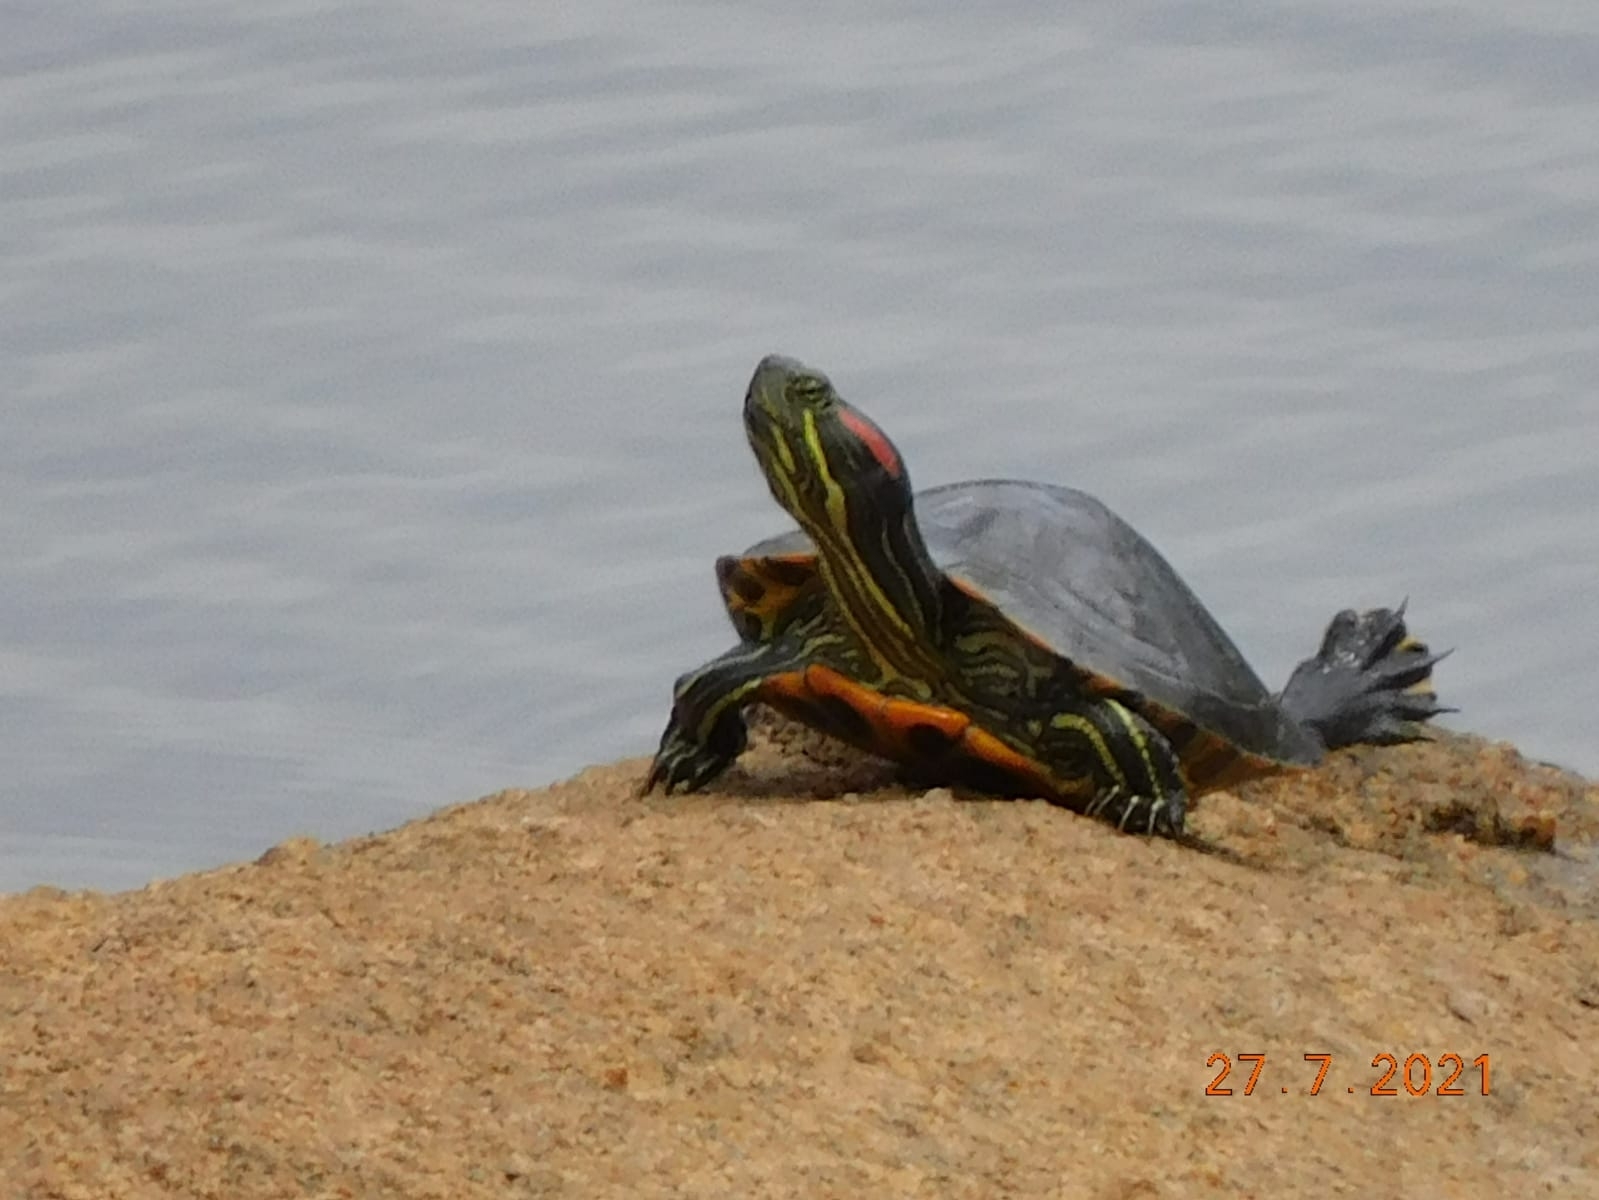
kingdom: Animalia
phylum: Chordata
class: Testudines
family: Emydidae
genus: Trachemys
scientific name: Trachemys scripta
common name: Slider
